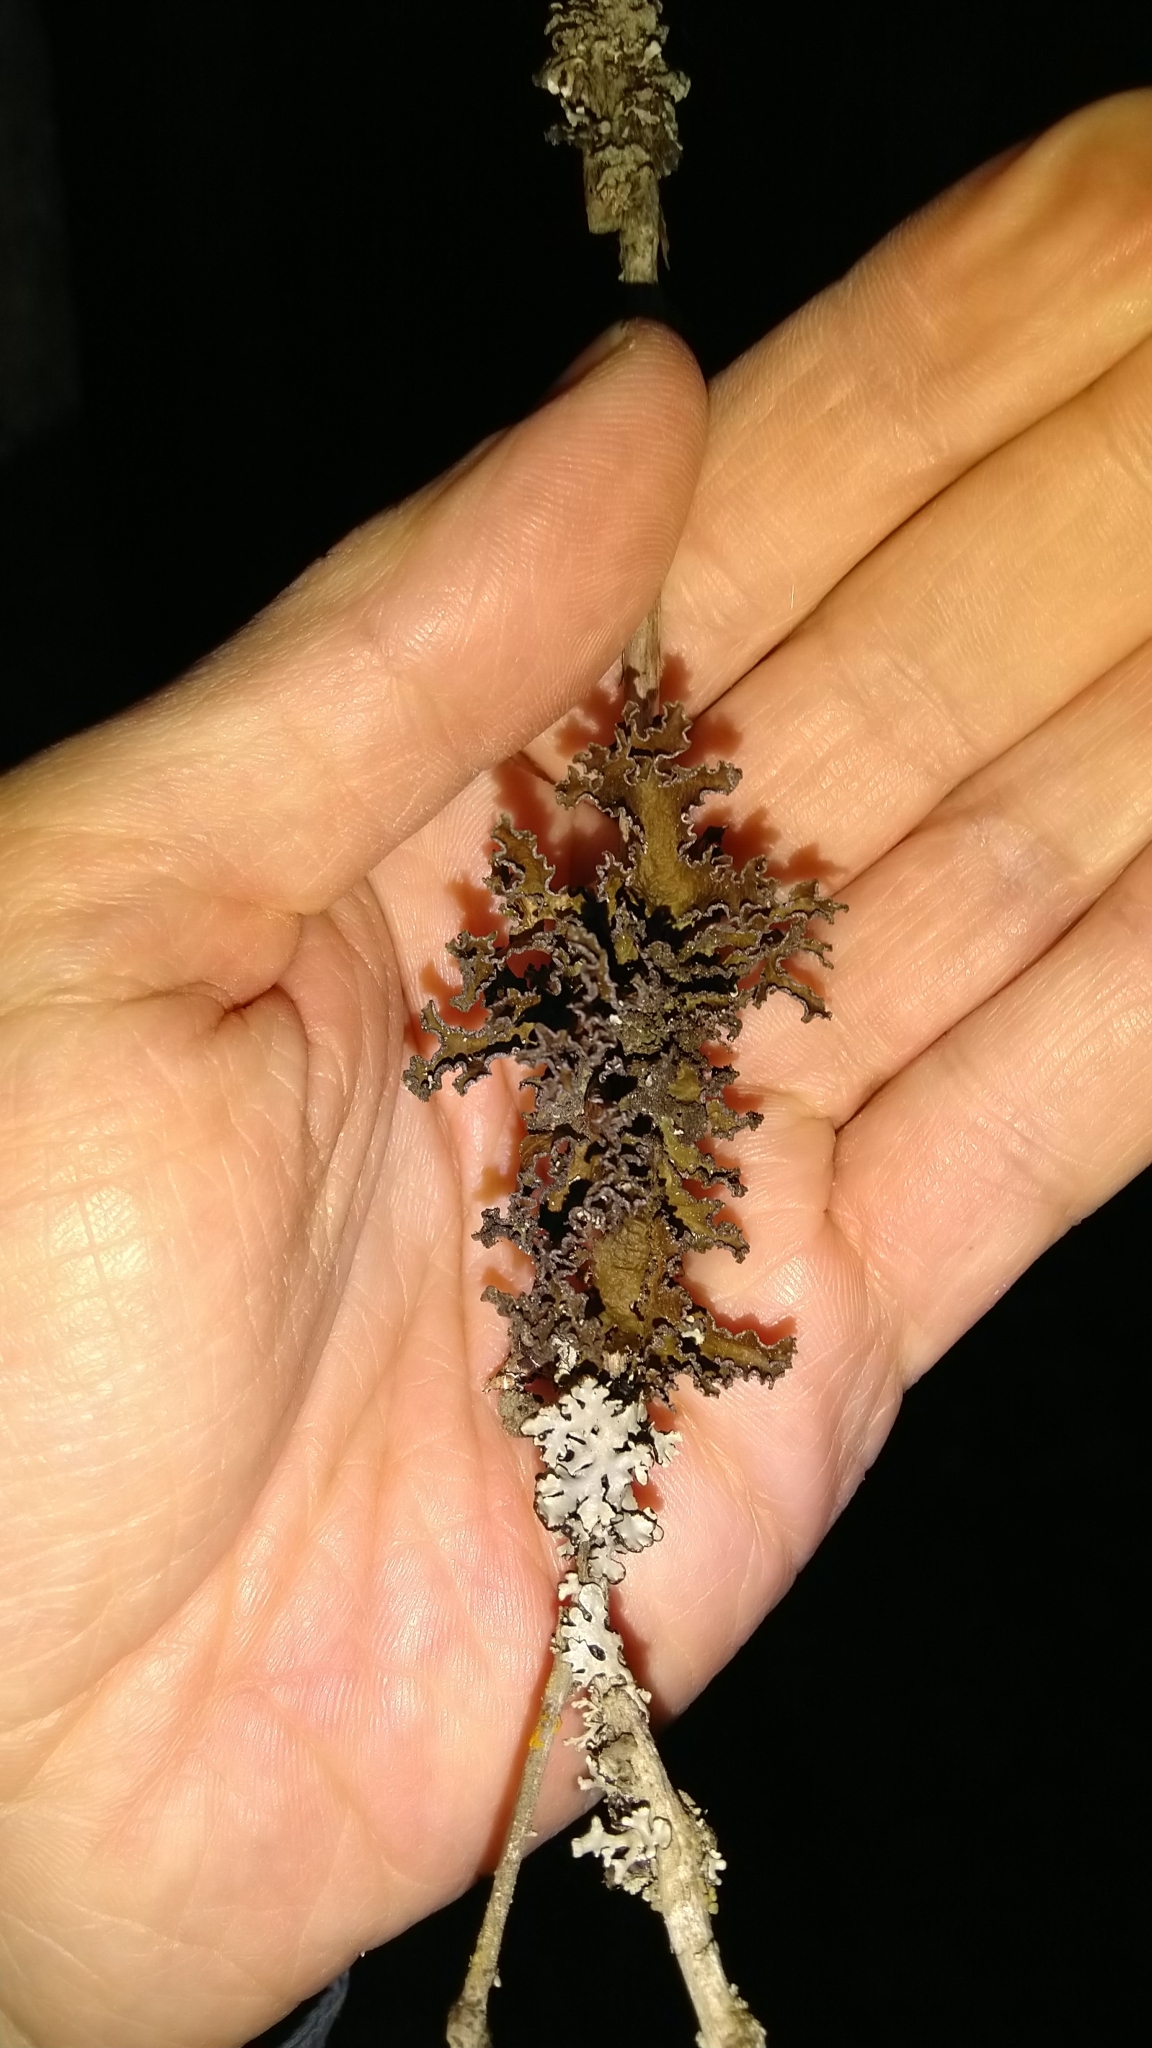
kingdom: Fungi
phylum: Ascomycota
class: Lecanoromycetes
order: Lecanorales
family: Parmeliaceae
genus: Nephromopsis
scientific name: Nephromopsis chlorophylla
